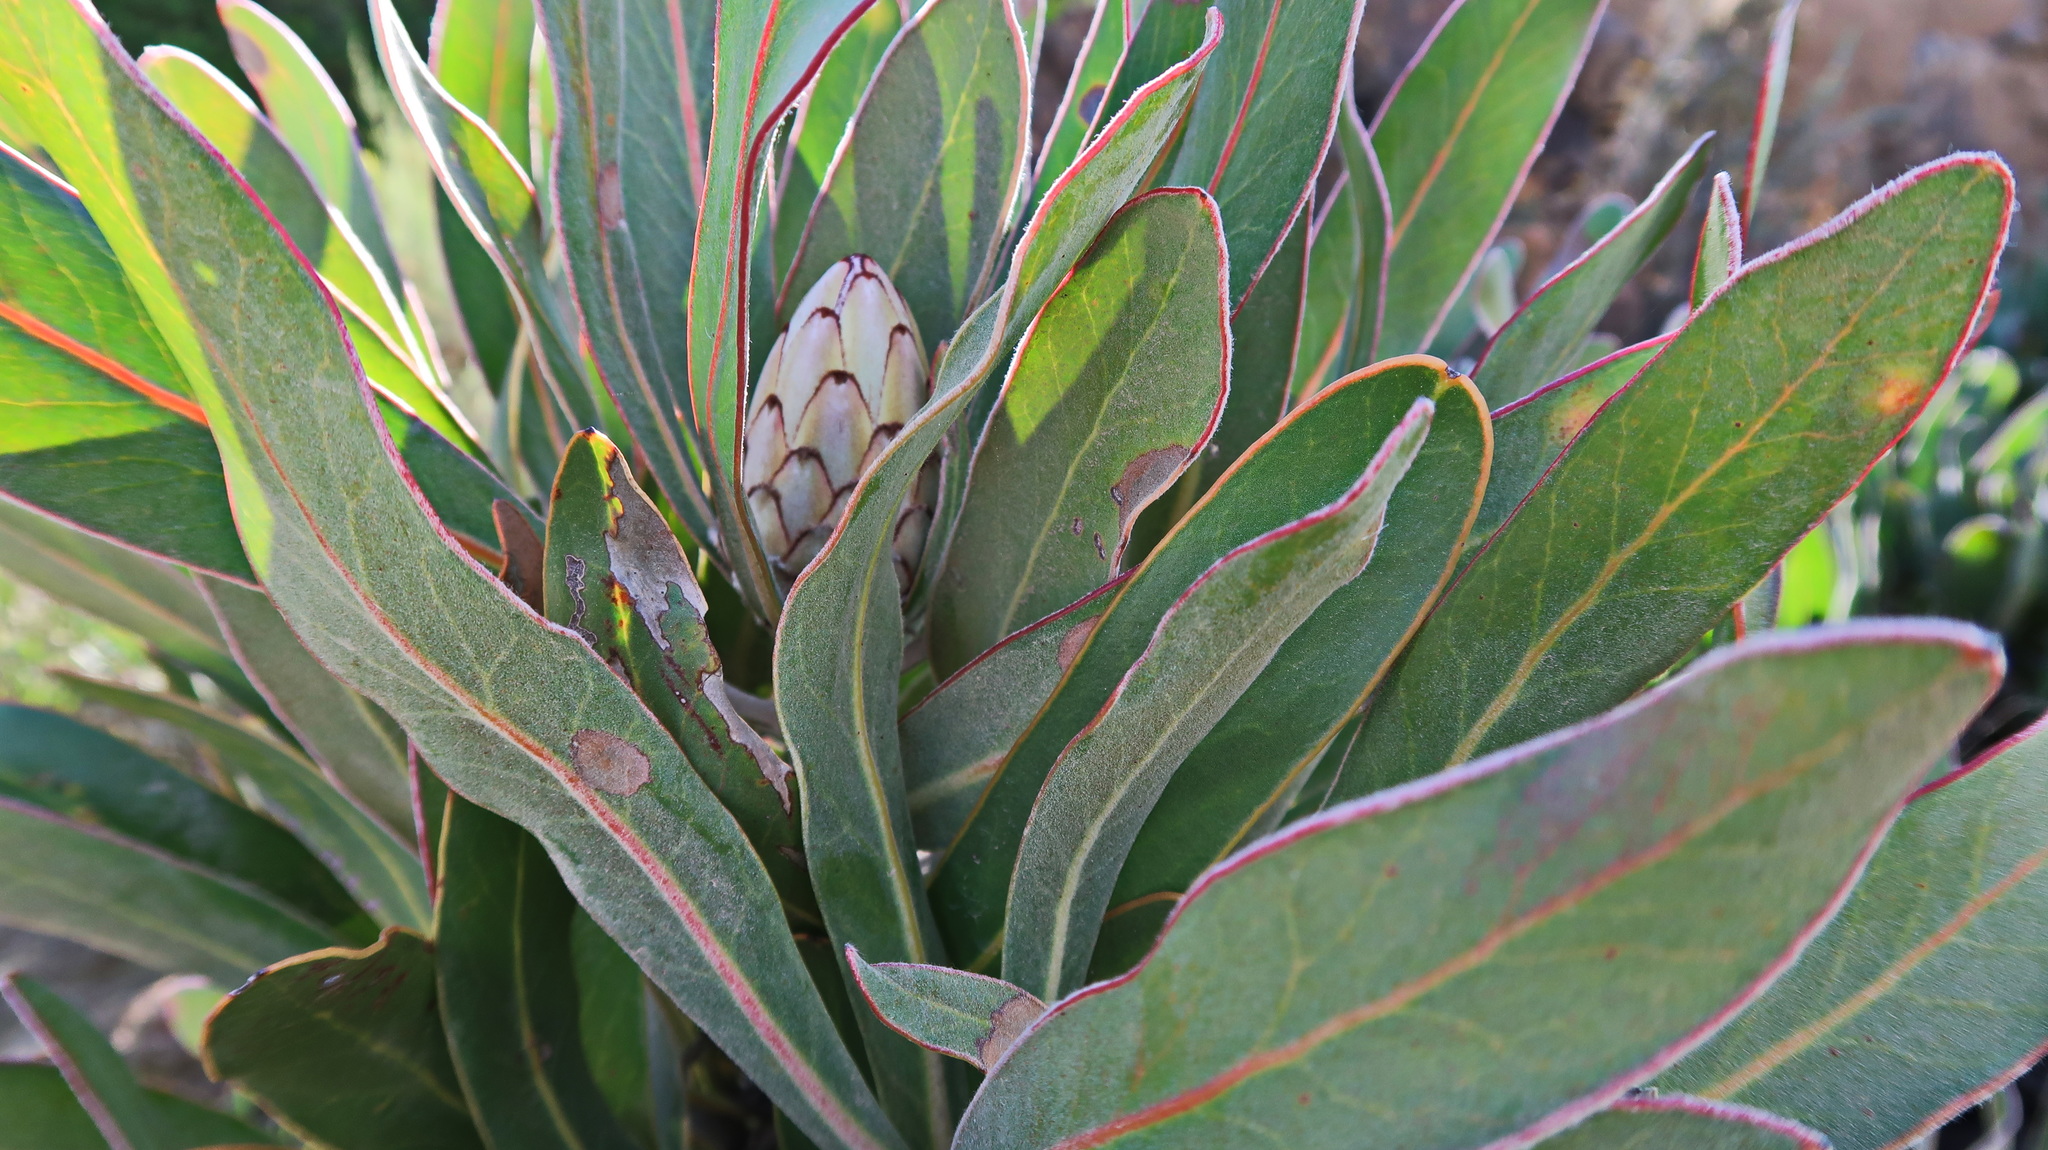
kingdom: Plantae
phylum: Tracheophyta
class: Magnoliopsida
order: Proteales
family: Proteaceae
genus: Protea
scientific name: Protea lorifolia
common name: Strap-leaved protea
